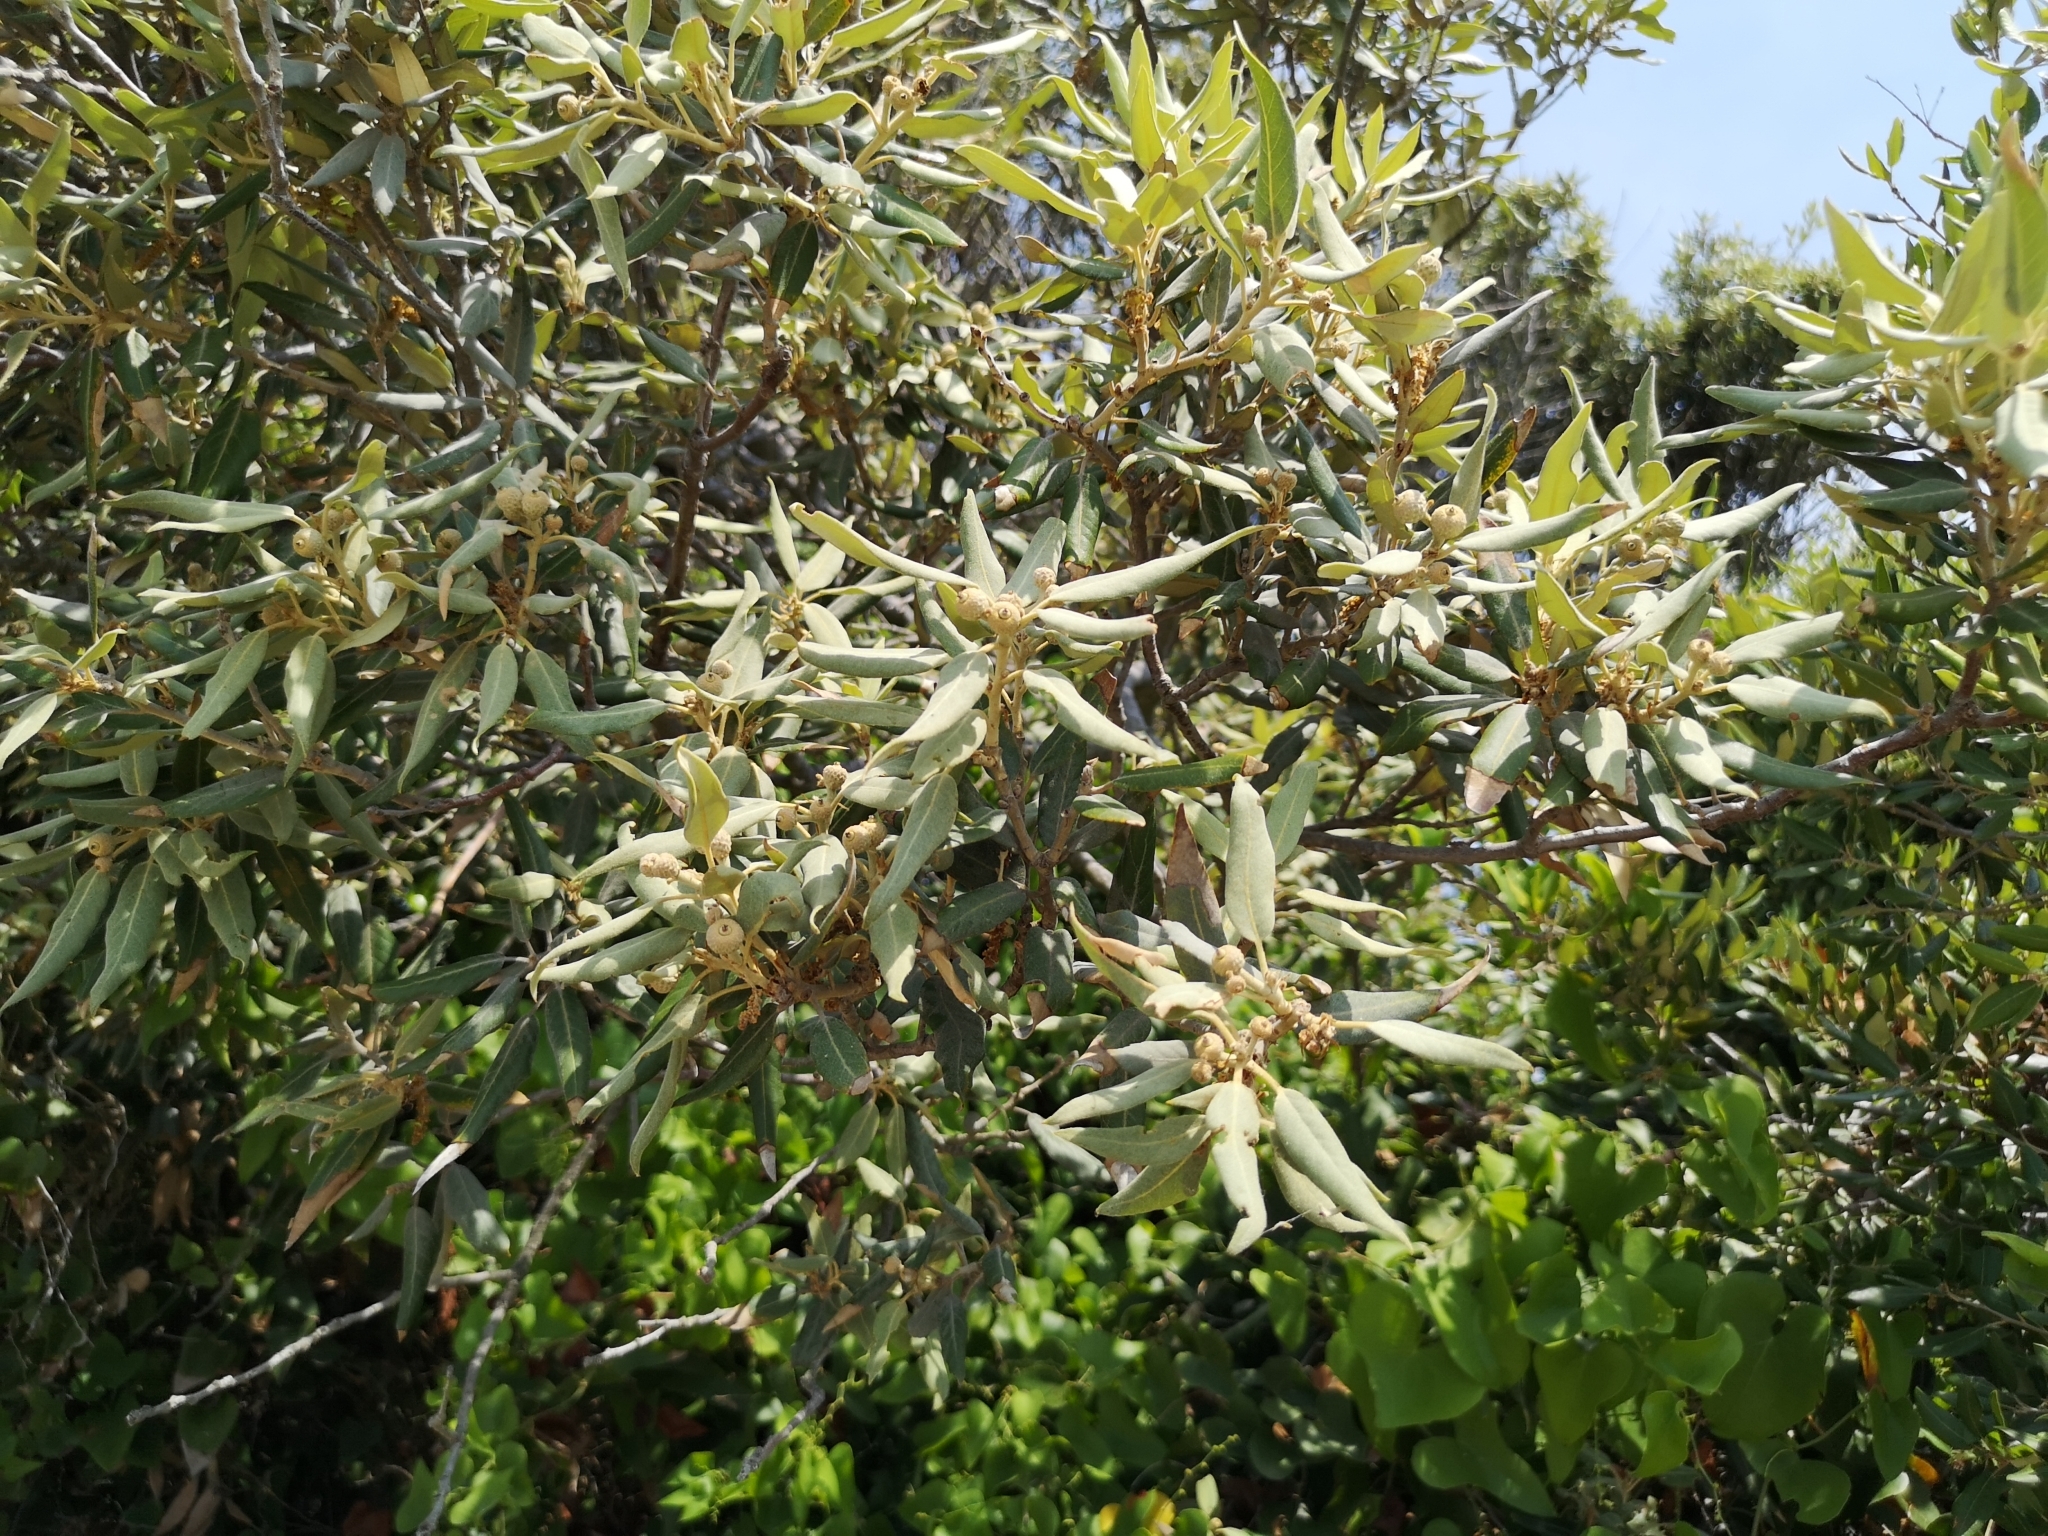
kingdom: Plantae
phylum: Tracheophyta
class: Magnoliopsida
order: Fagales
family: Fagaceae
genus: Quercus
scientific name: Quercus ilex
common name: Evergreen oak
